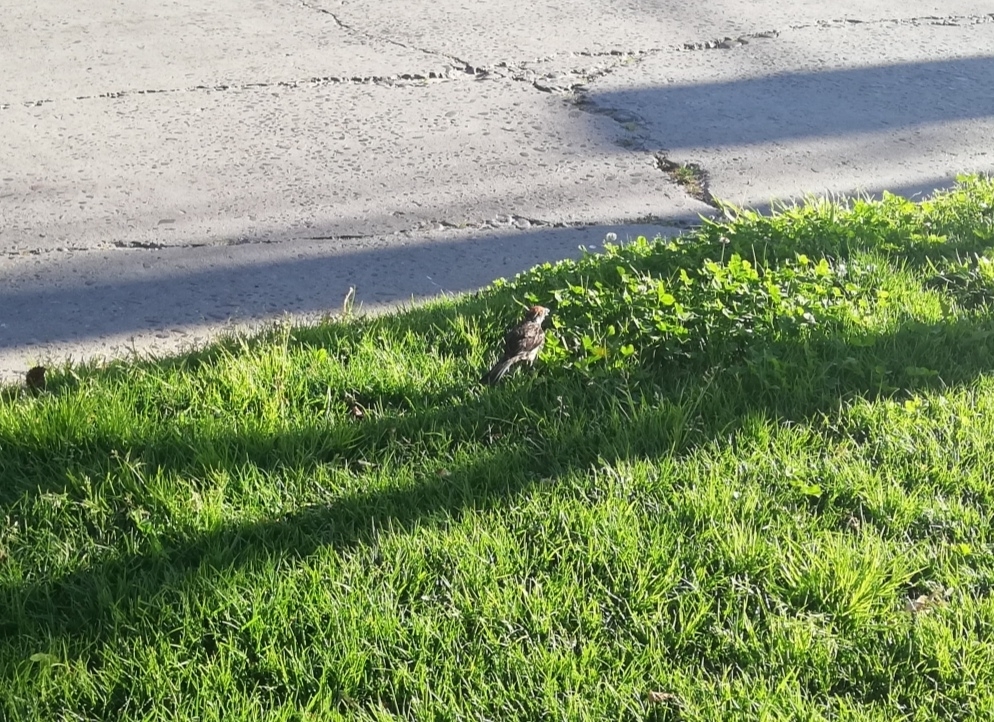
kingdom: Animalia
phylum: Chordata
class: Aves
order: Passeriformes
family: Cotingidae
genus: Phytotoma
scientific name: Phytotoma rara
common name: Rufous-tailed plantcutter
